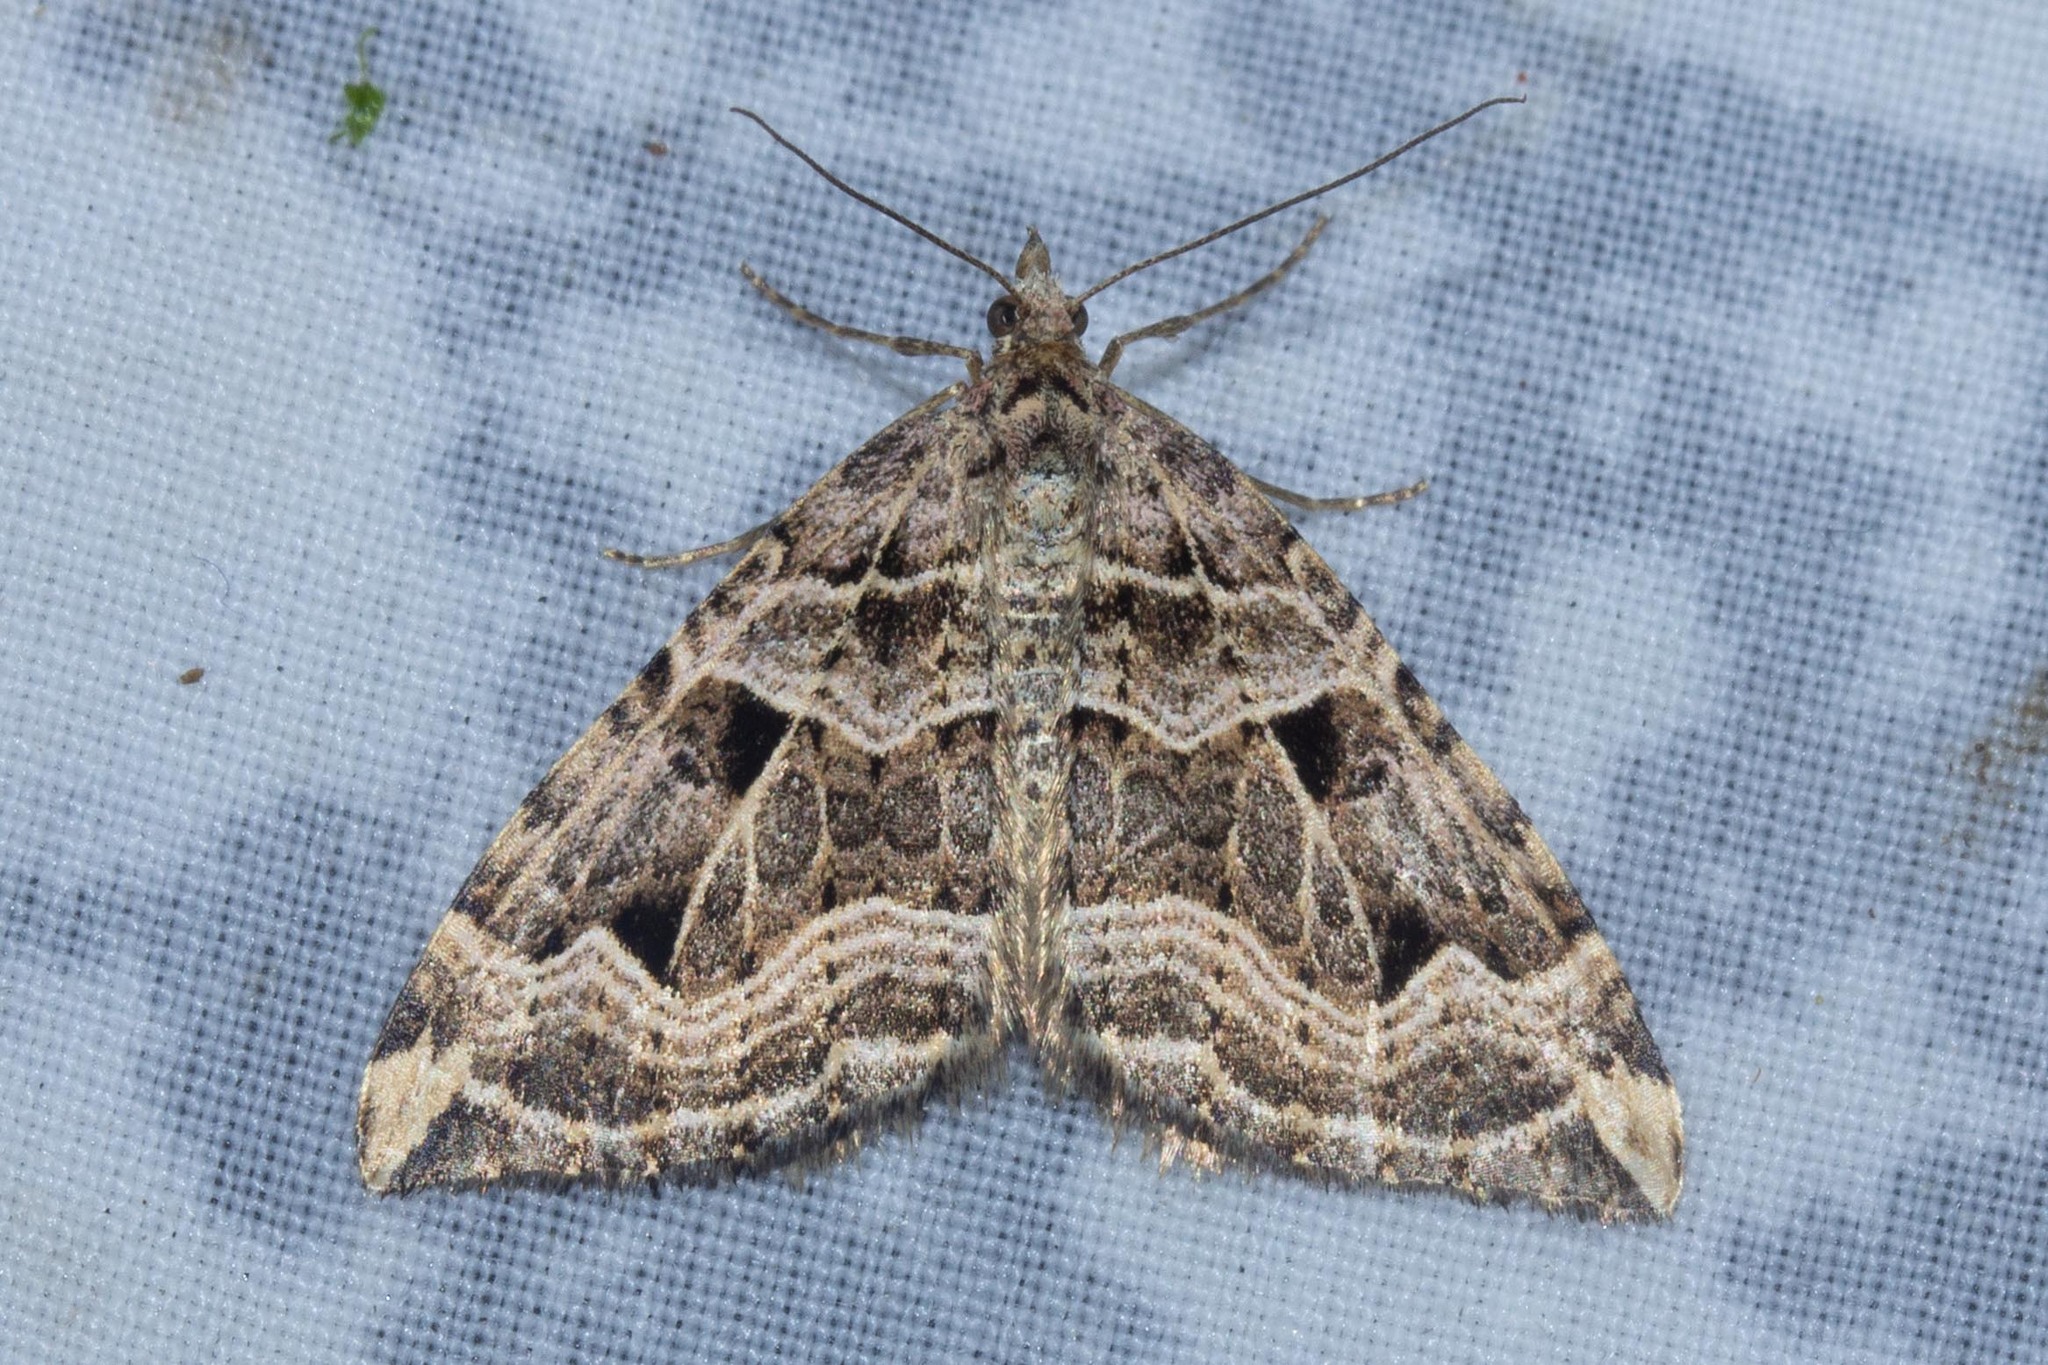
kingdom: Animalia
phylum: Arthropoda
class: Insecta
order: Lepidoptera
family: Geometridae
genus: Xanthorhoe
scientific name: Xanthorhoe semifissata
